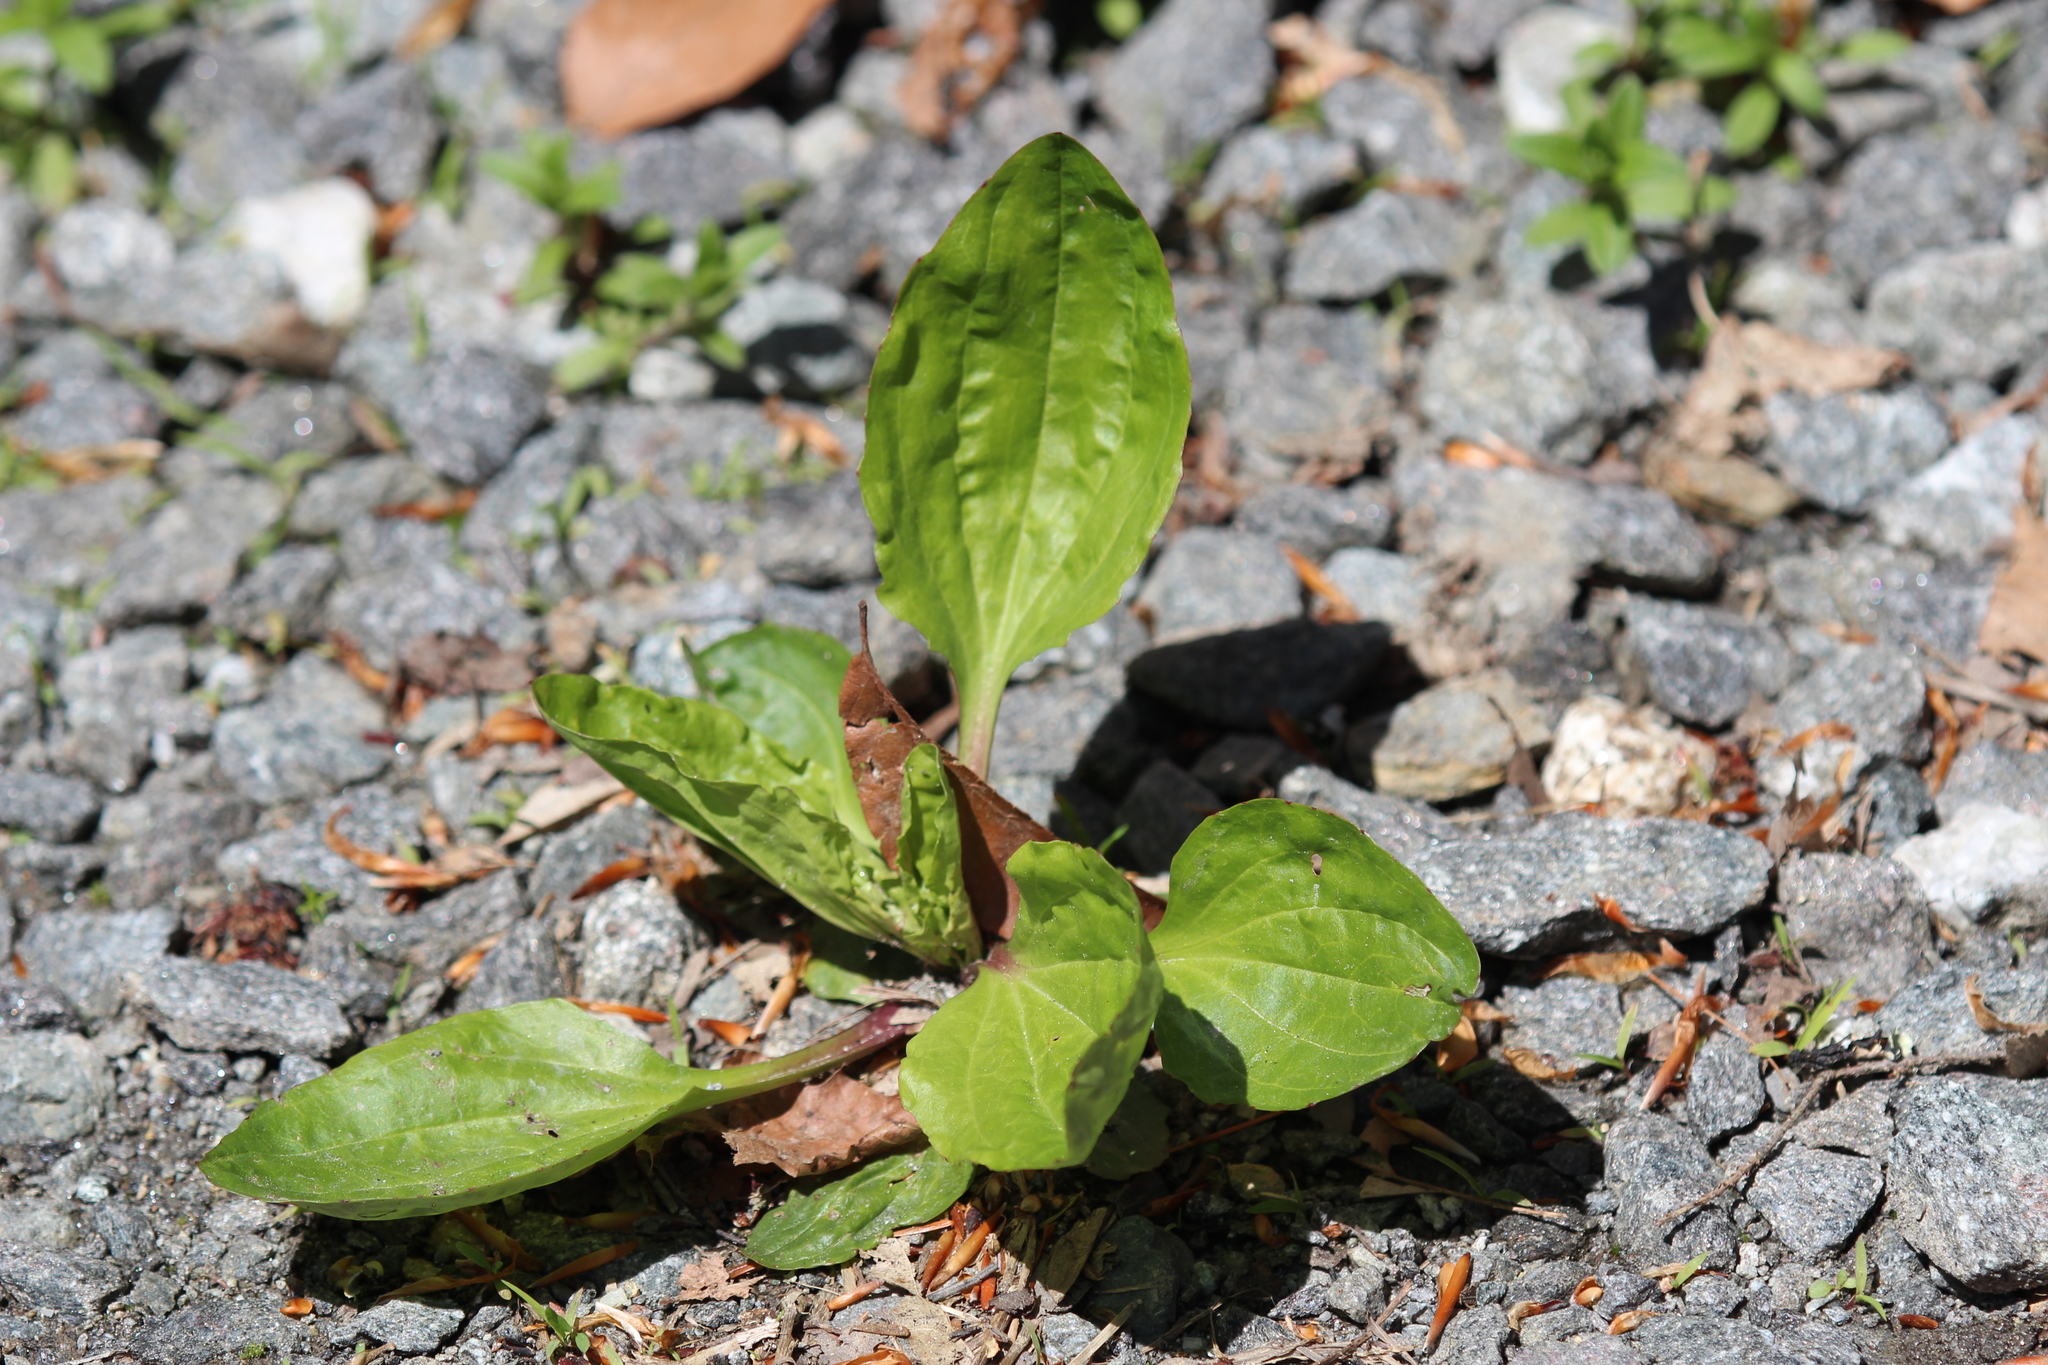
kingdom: Plantae
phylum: Tracheophyta
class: Magnoliopsida
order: Lamiales
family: Plantaginaceae
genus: Plantago
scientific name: Plantago rugelii
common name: American plantain
